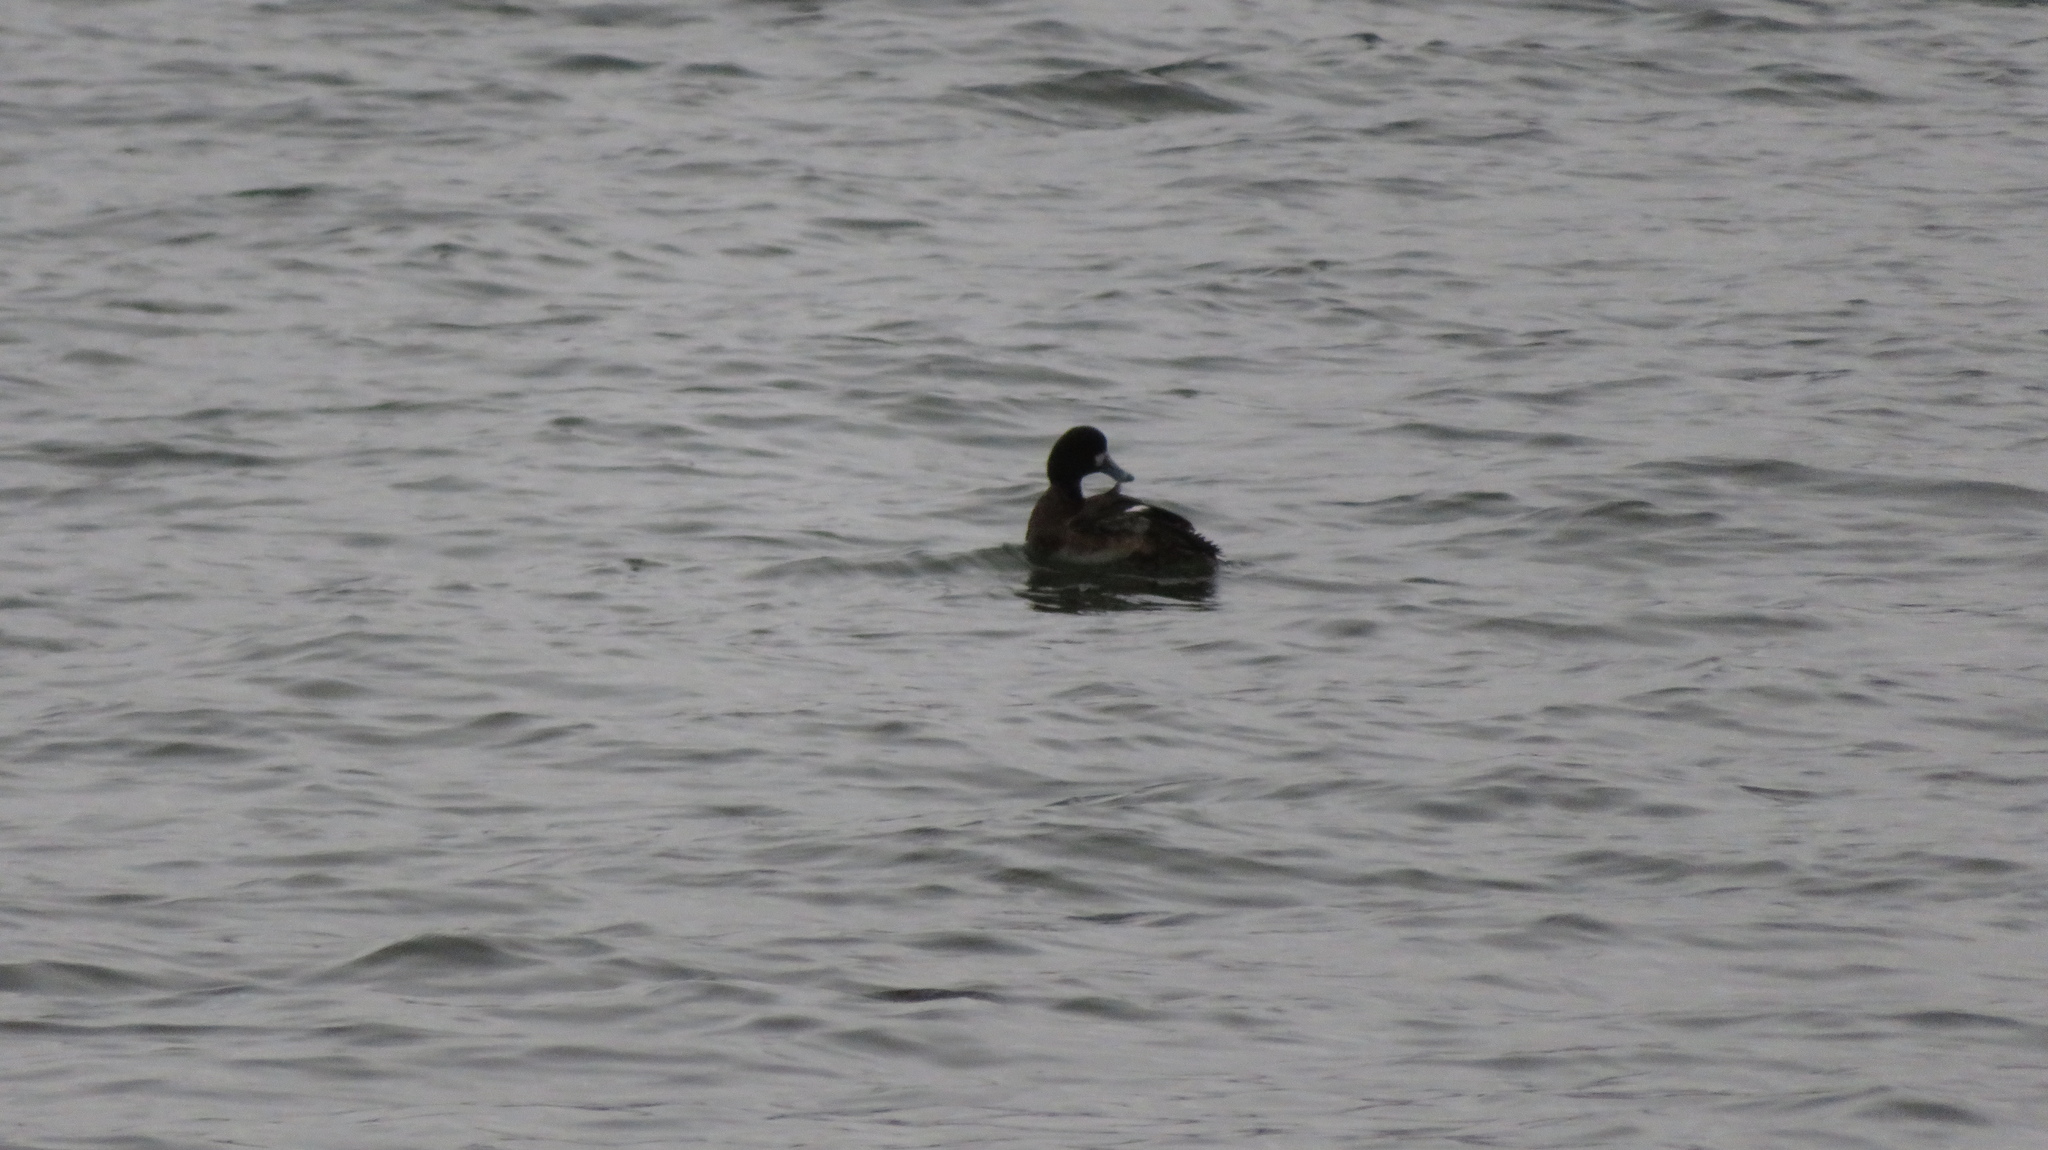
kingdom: Animalia
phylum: Chordata
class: Aves
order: Anseriformes
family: Anatidae
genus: Aythya
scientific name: Aythya marila
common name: Greater scaup
